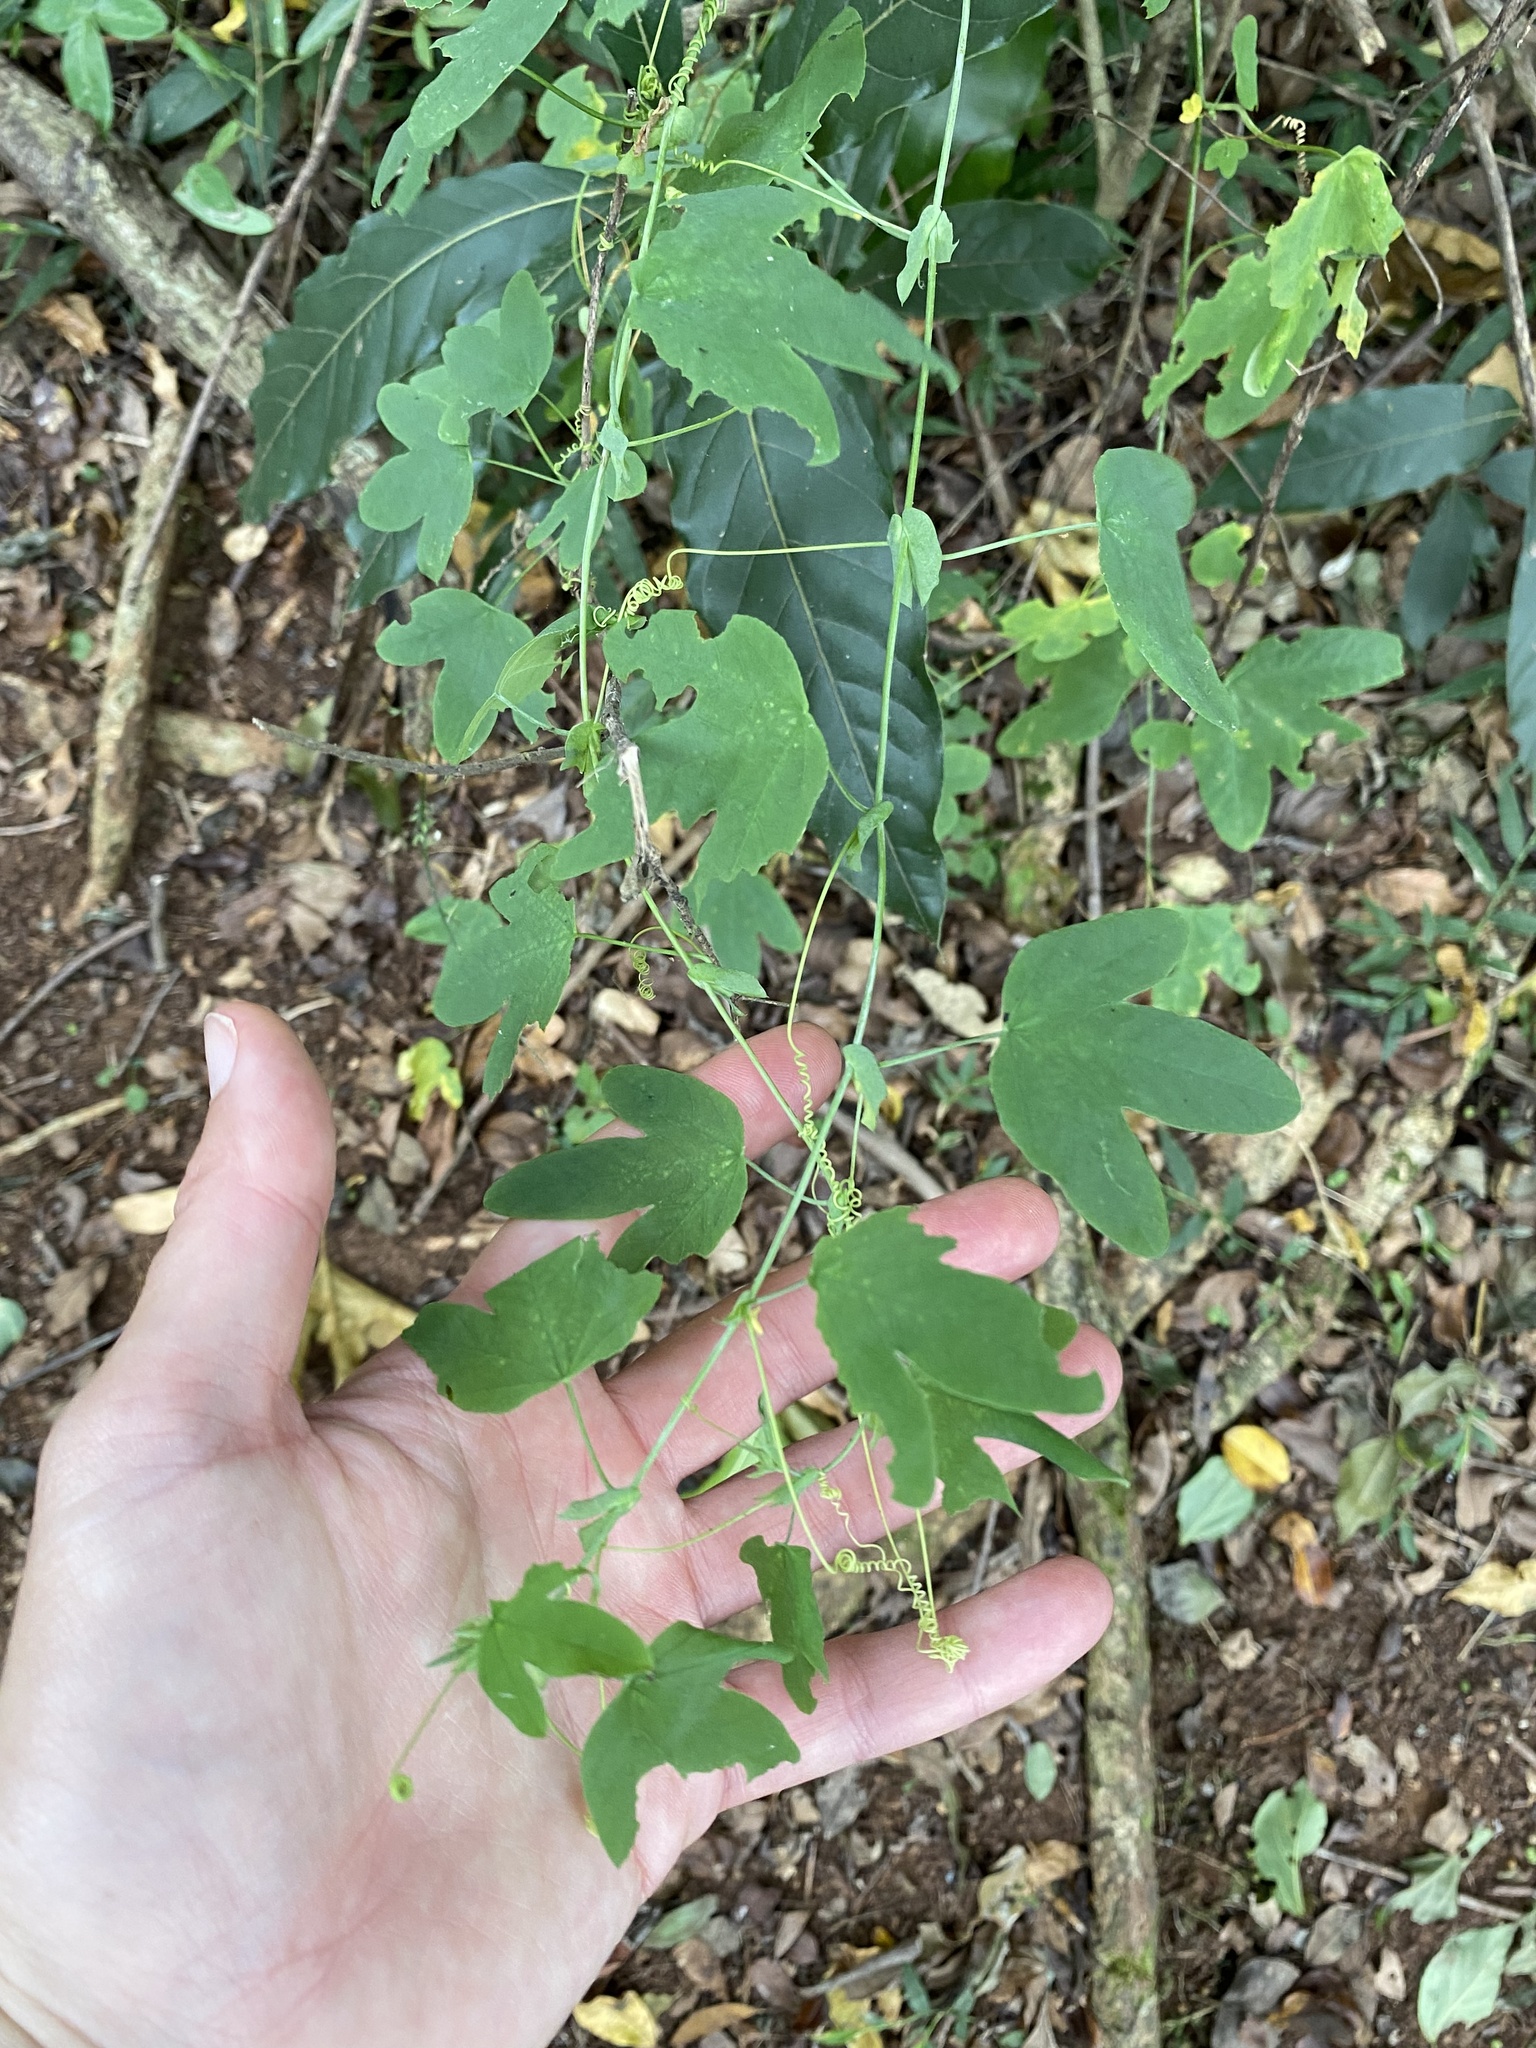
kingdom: Plantae
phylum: Tracheophyta
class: Magnoliopsida
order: Malpighiales
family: Passifloraceae
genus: Passiflora
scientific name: Passiflora subpeltata
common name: White passionflower
